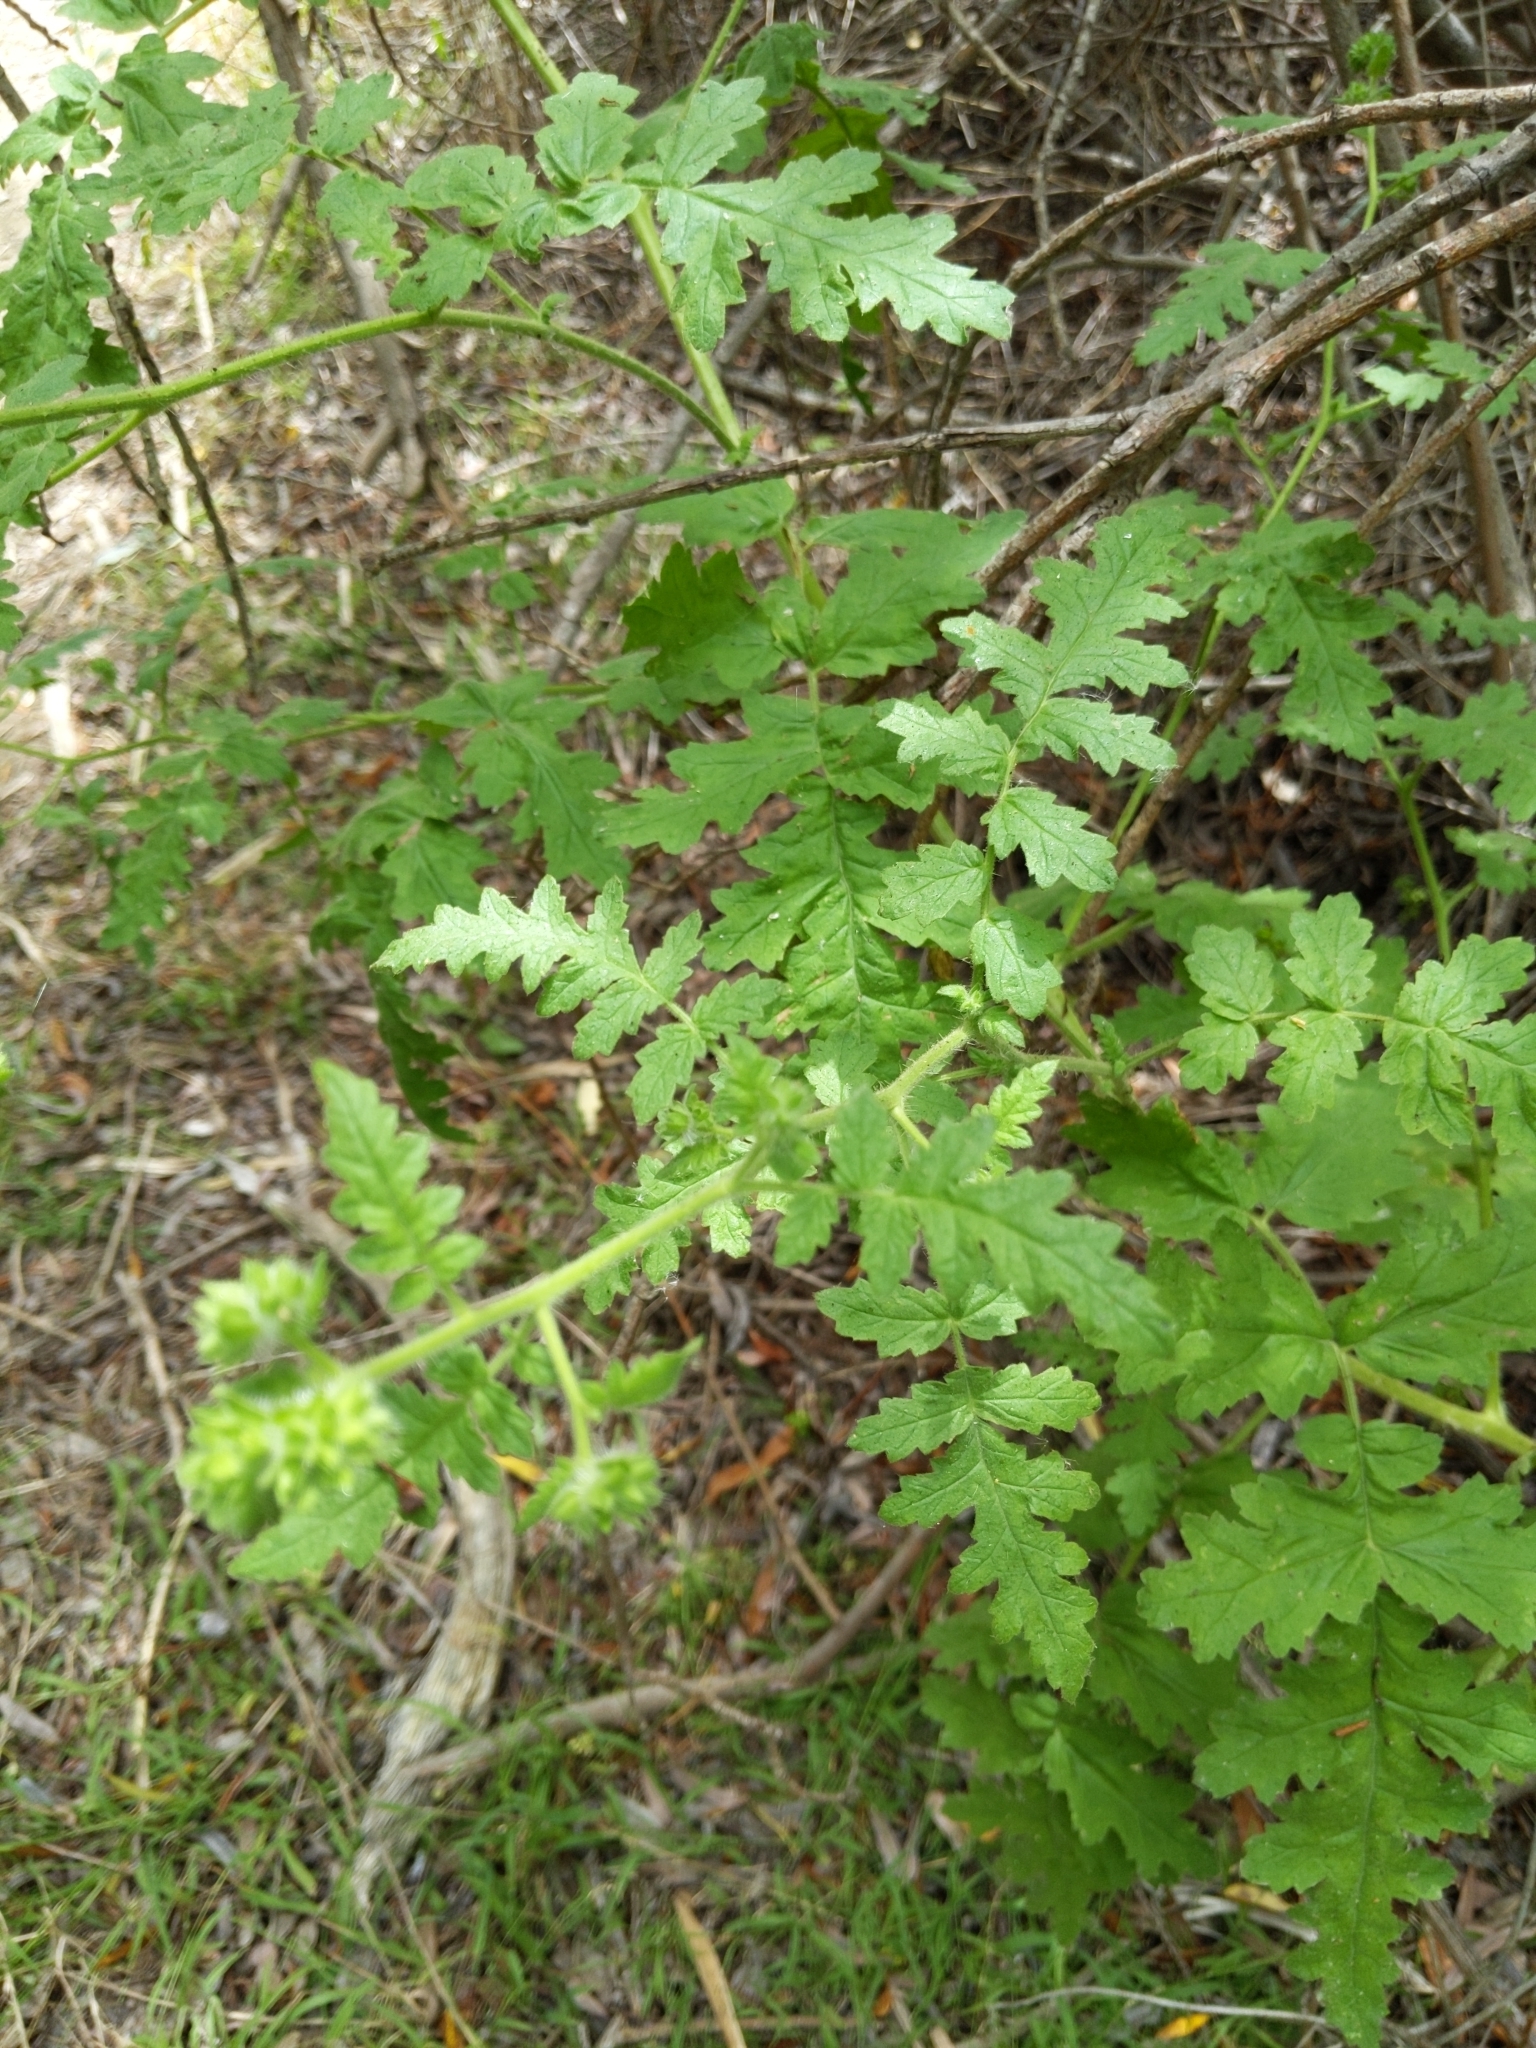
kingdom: Plantae
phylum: Tracheophyta
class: Magnoliopsida
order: Boraginales
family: Hydrophyllaceae
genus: Phacelia
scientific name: Phacelia ramosissima
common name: Branching phacelia
